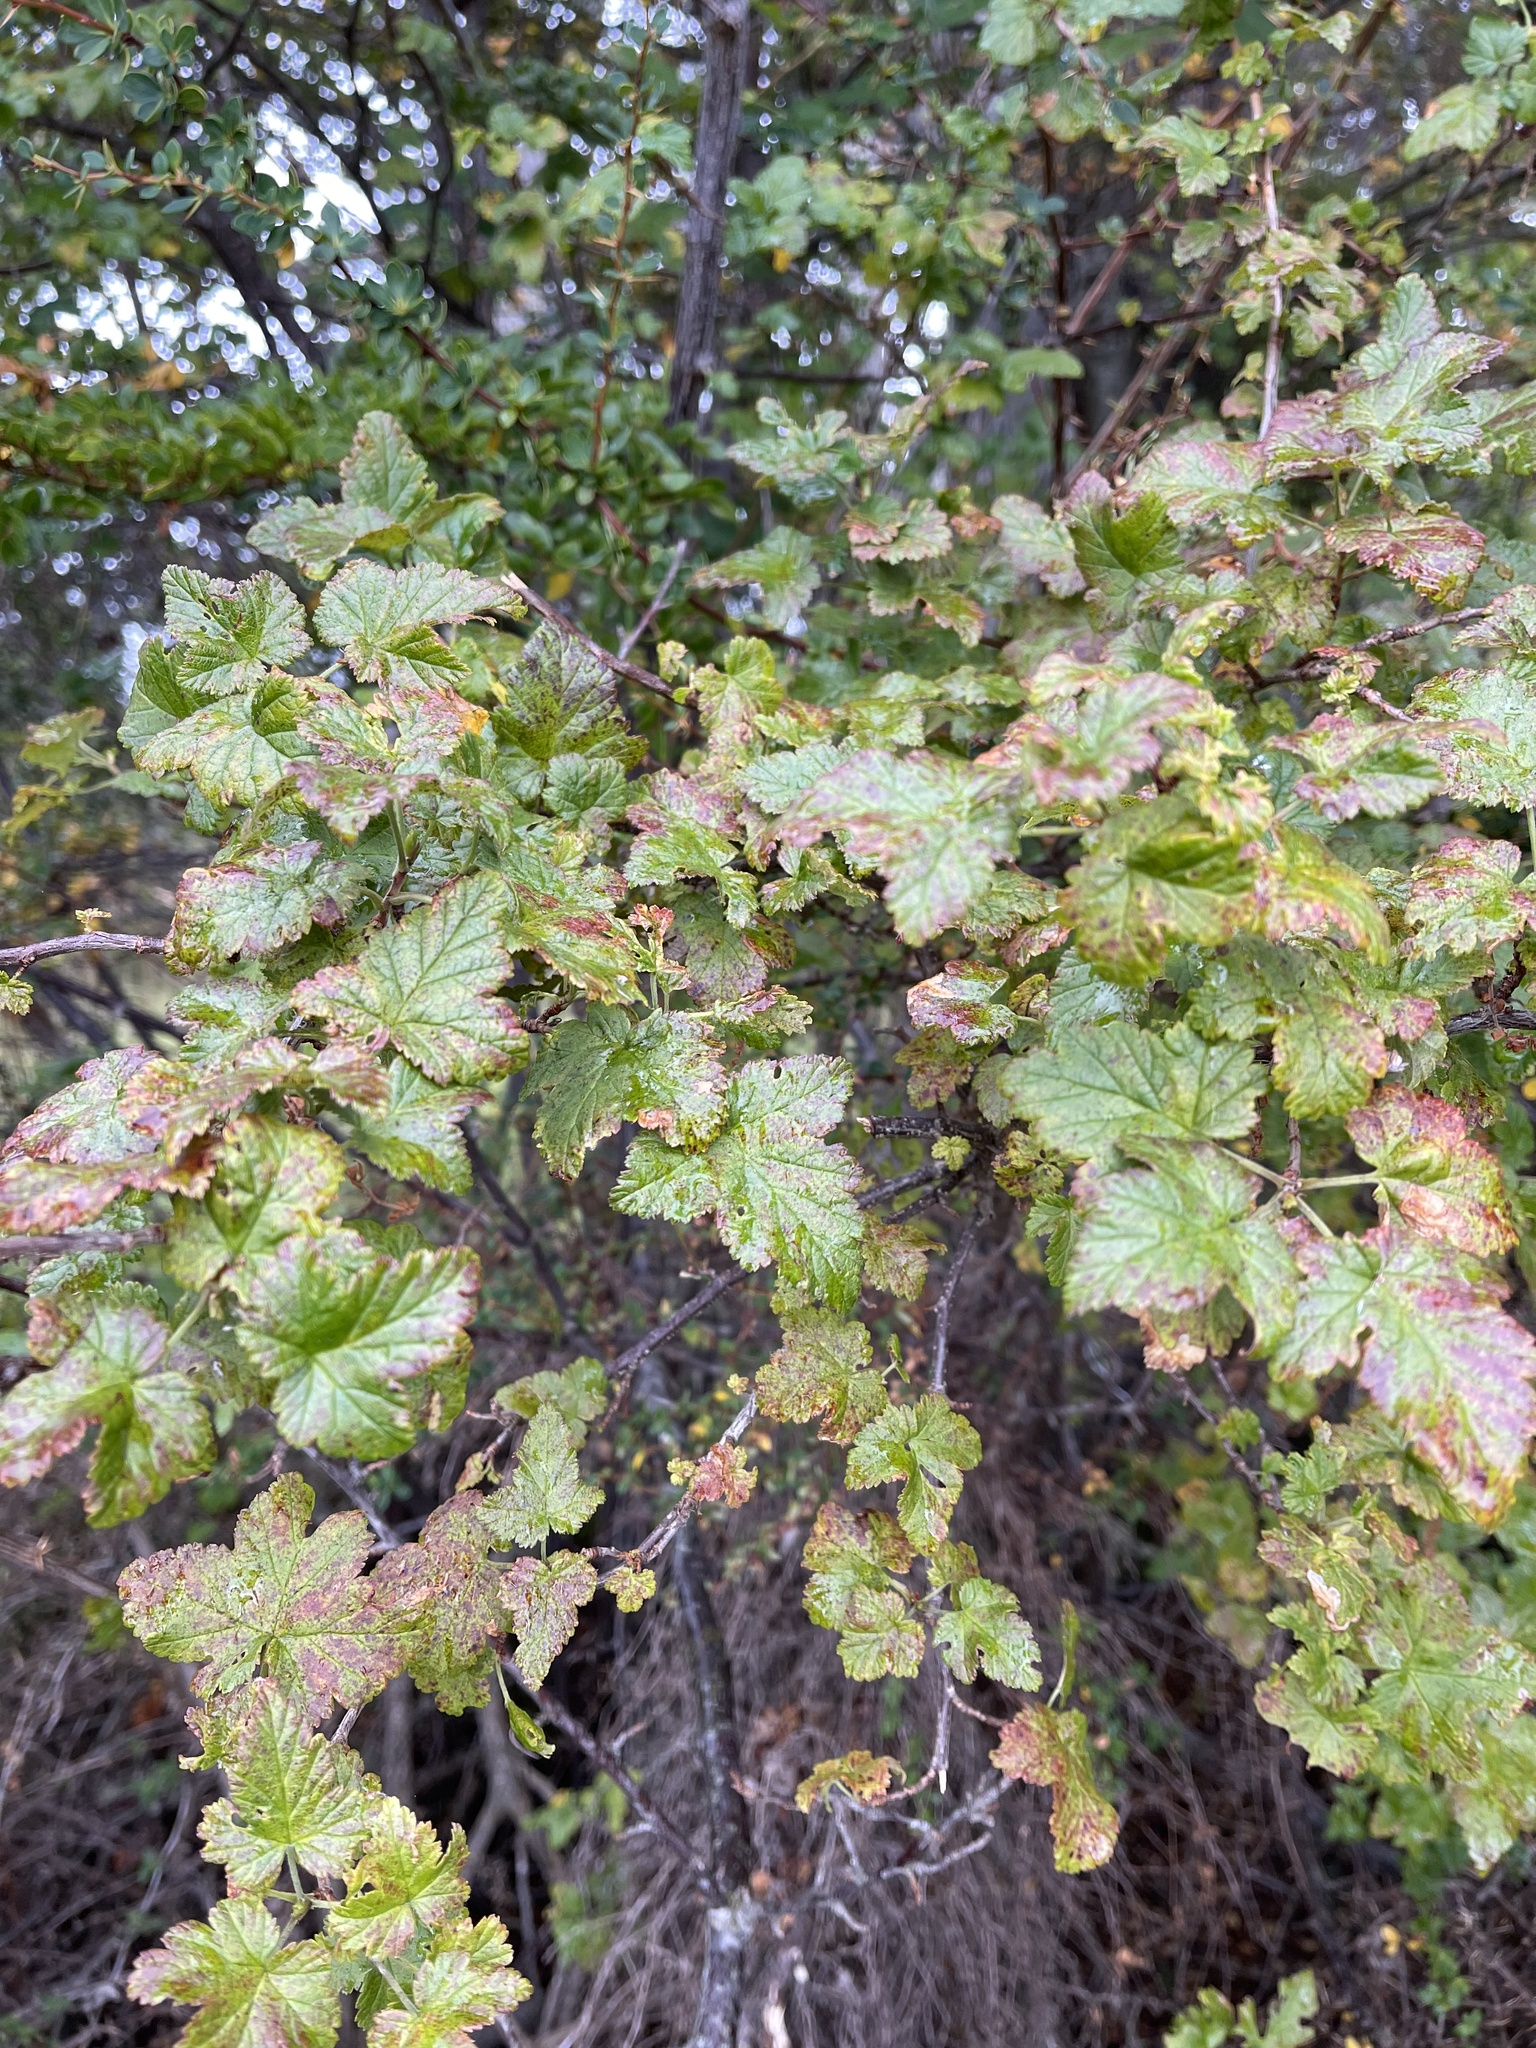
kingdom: Plantae
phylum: Tracheophyta
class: Magnoliopsida
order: Saxifragales
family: Grossulariaceae
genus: Ribes
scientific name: Ribes magellanicum
